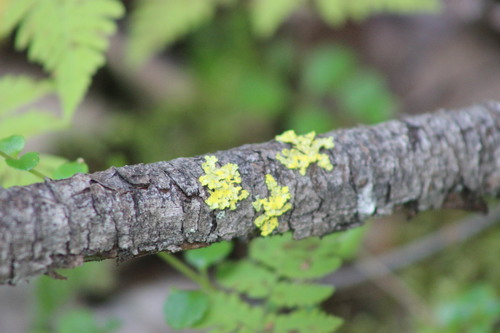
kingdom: Fungi
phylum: Ascomycota
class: Lecanoromycetes
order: Lecanorales
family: Parmeliaceae
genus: Vulpicida
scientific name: Vulpicida pinastri
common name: Powdered sunshine lichen
